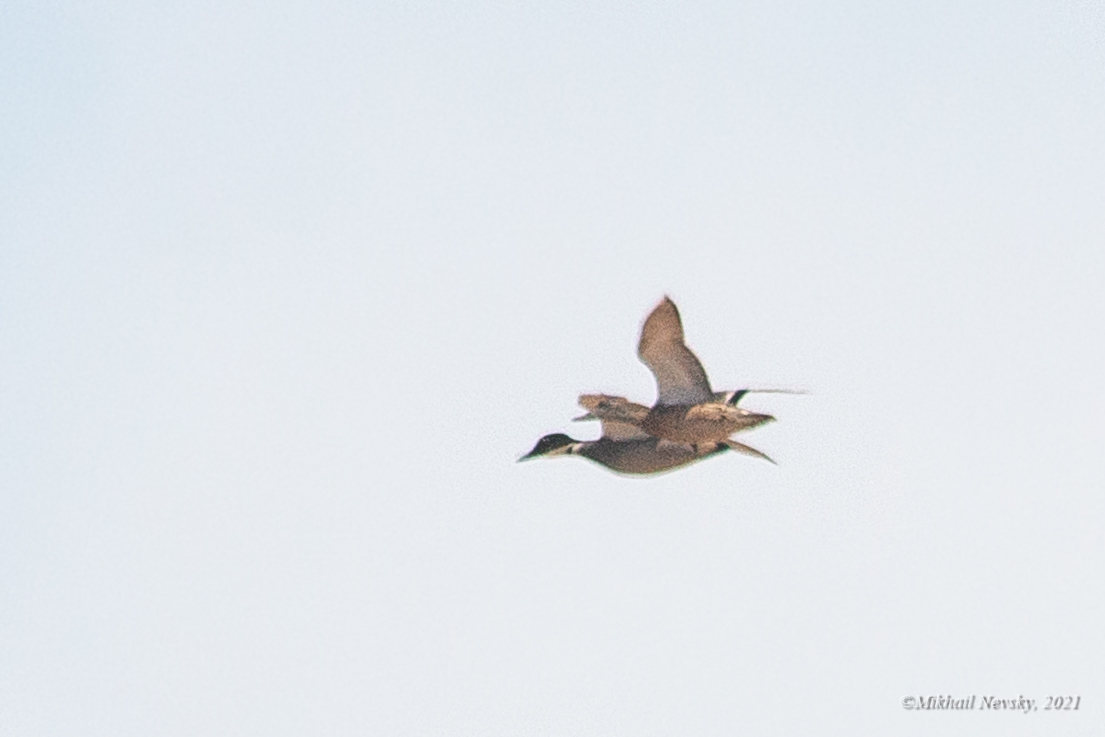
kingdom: Animalia
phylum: Chordata
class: Aves
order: Anseriformes
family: Anatidae
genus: Mareca
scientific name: Mareca falcata
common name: Falcated duck
